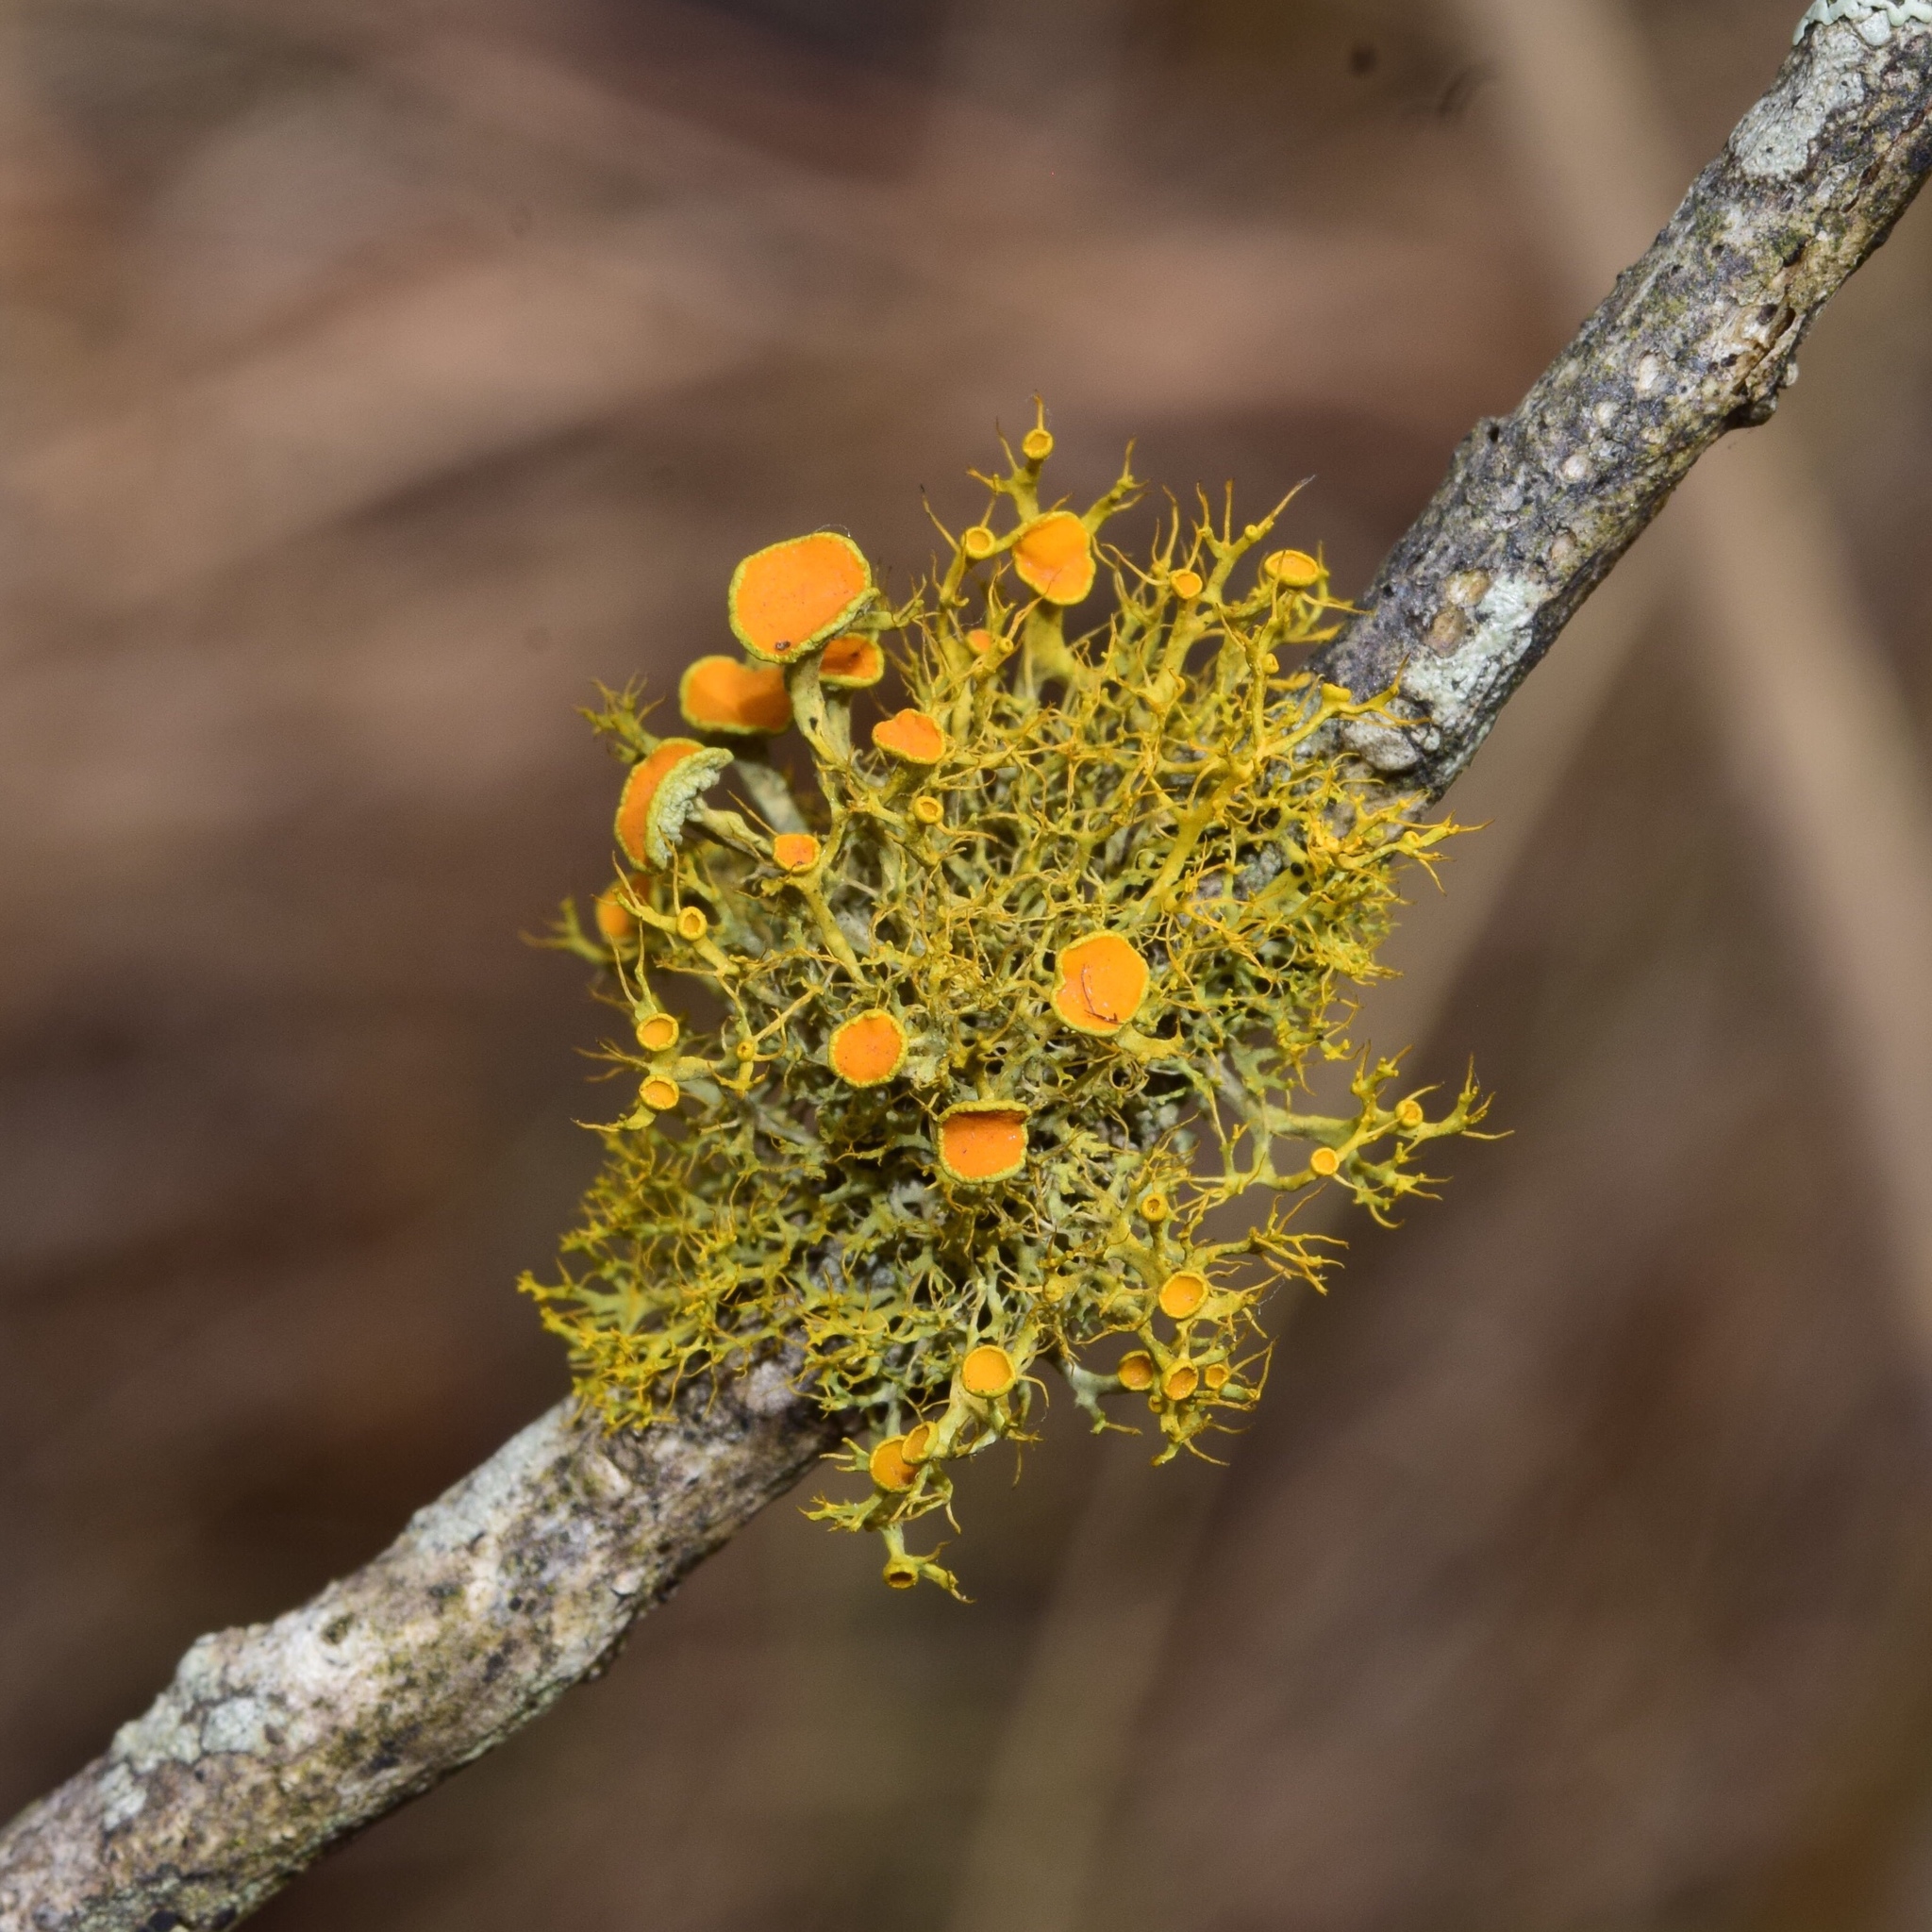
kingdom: Fungi
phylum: Ascomycota
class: Lecanoromycetes
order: Teloschistales
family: Teloschistaceae
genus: Teloschistes
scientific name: Teloschistes exilis
